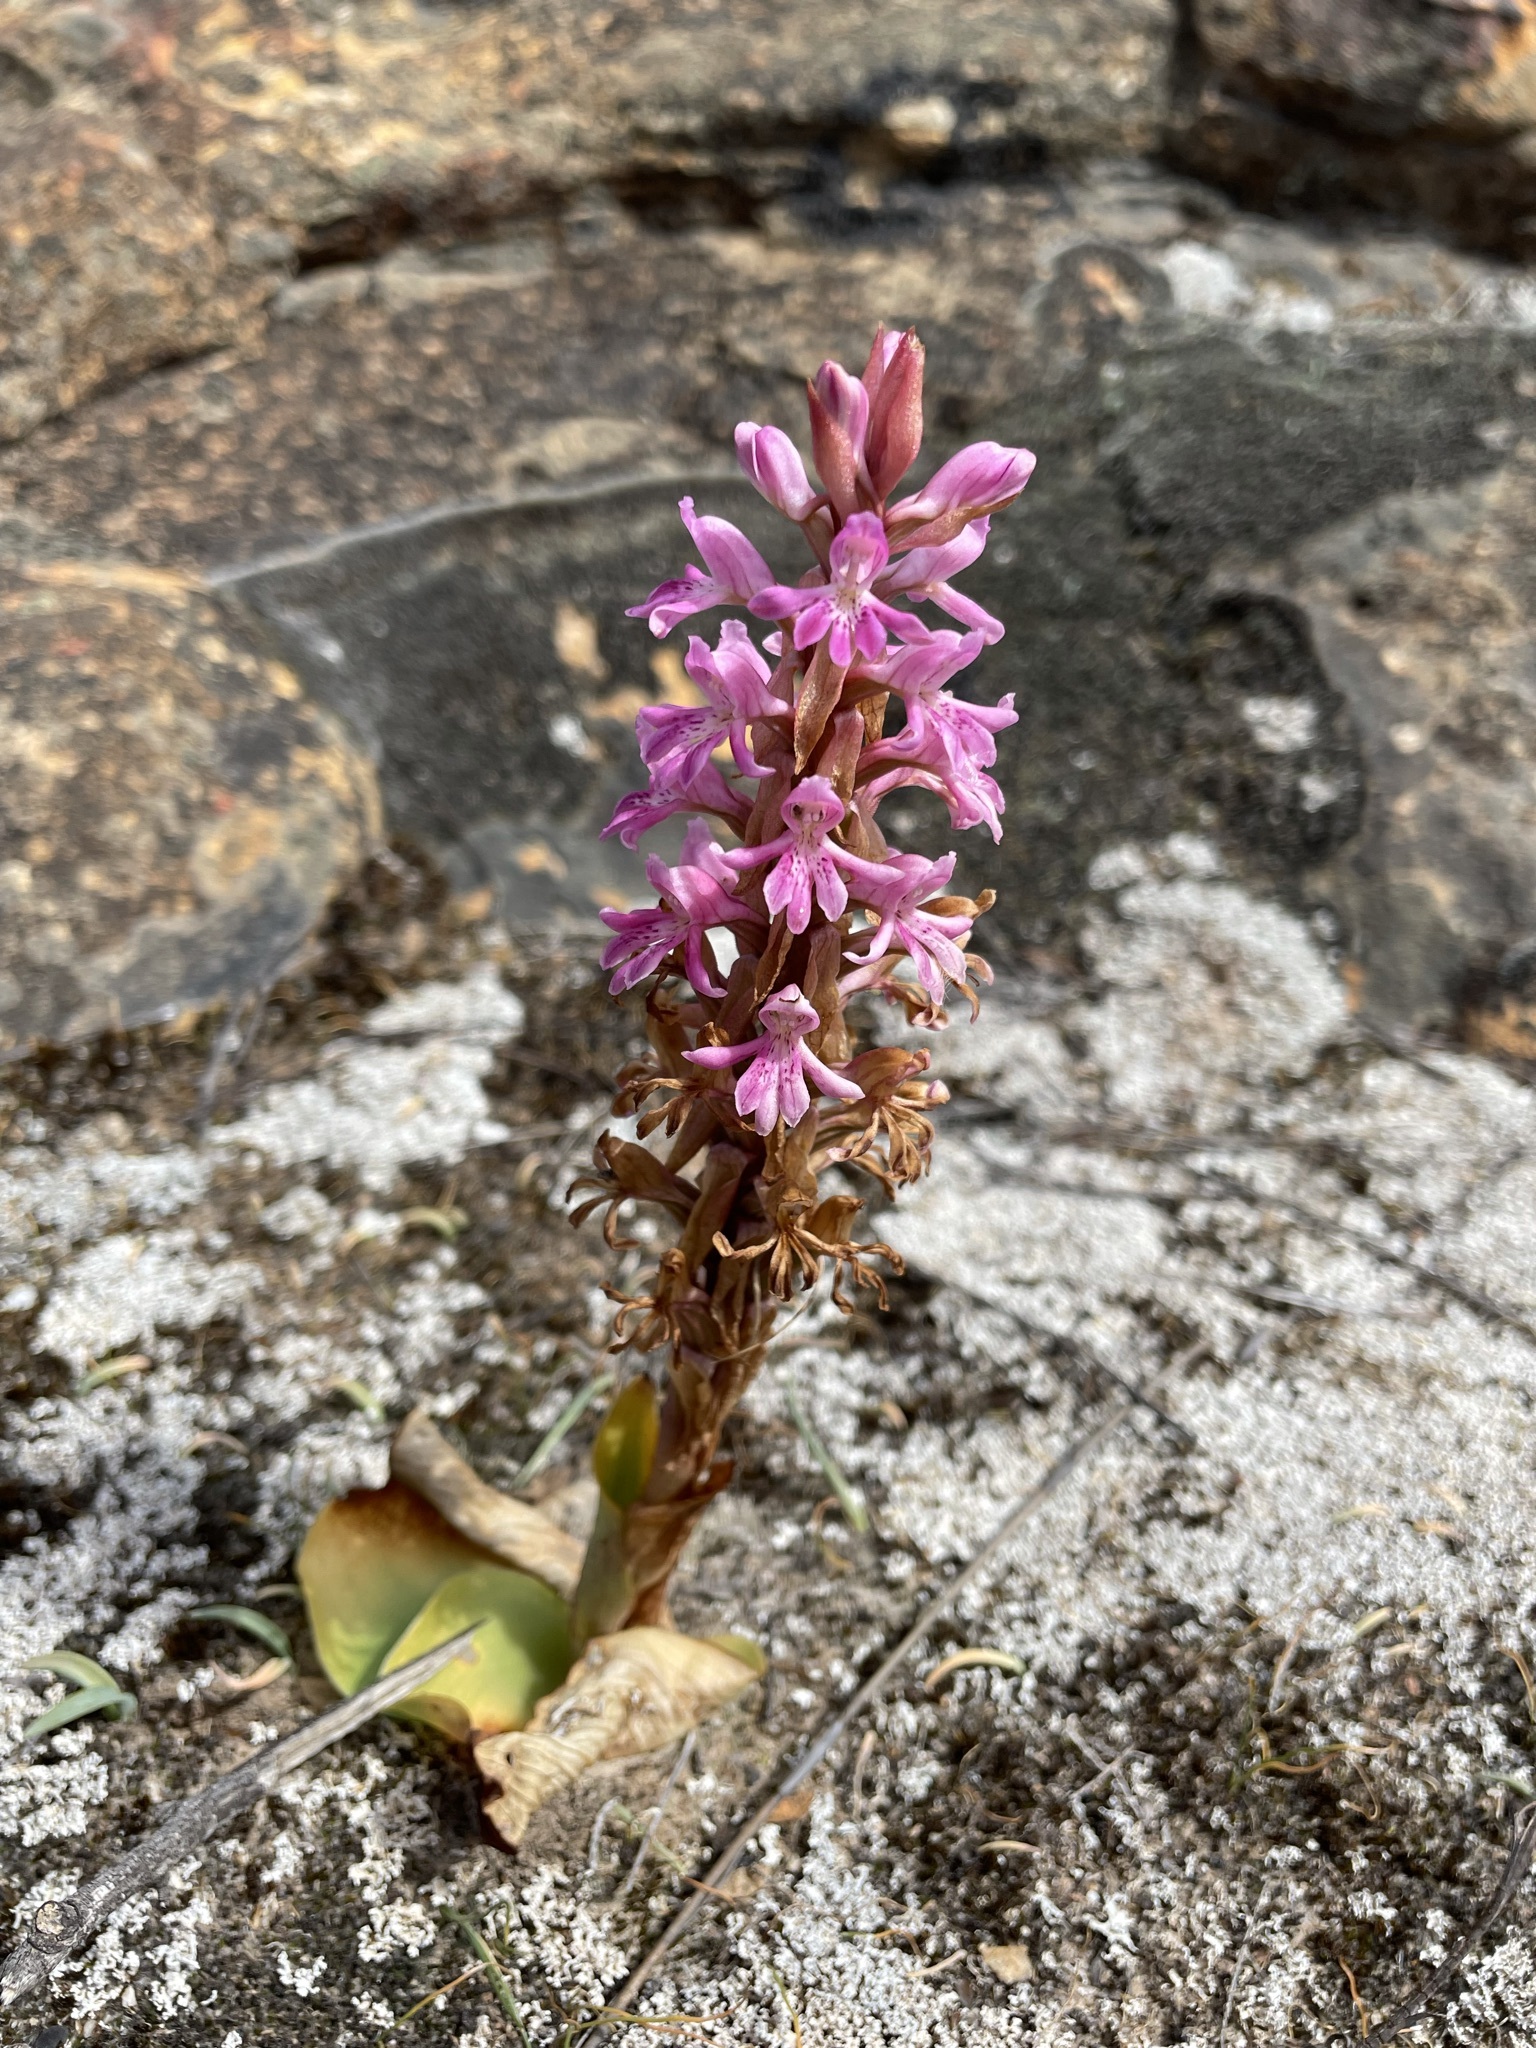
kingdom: Plantae
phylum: Tracheophyta
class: Liliopsida
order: Asparagales
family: Orchidaceae
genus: Satyrium
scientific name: Satyrium erectum
